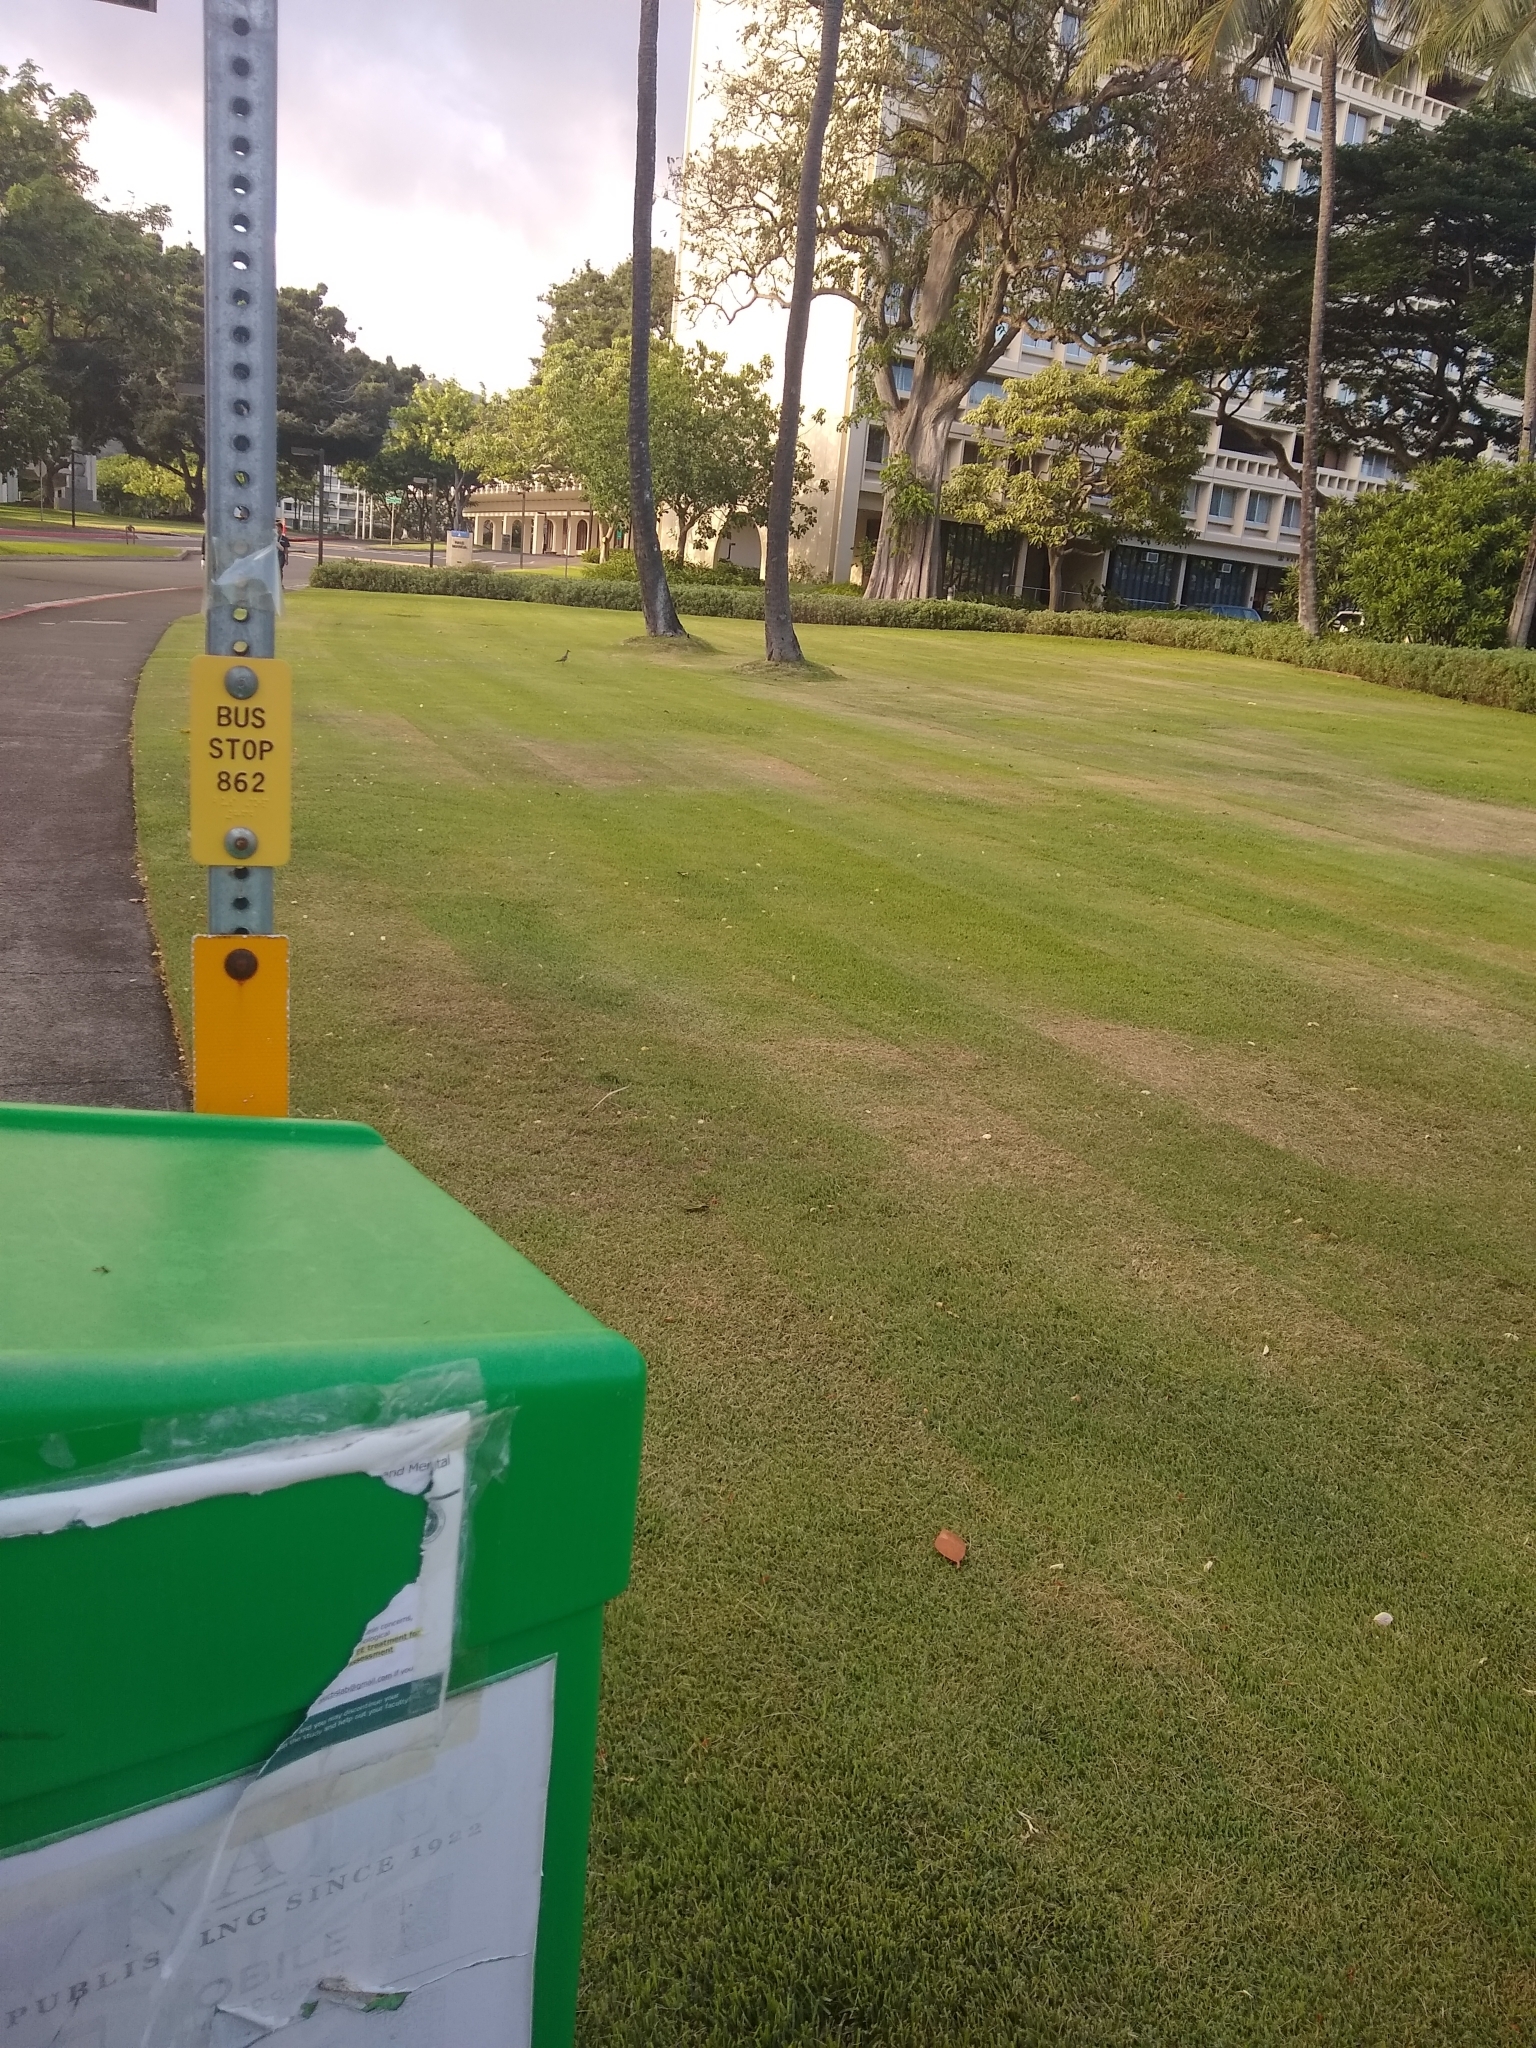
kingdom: Animalia
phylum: Chordata
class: Aves
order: Charadriiformes
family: Charadriidae
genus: Pluvialis
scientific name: Pluvialis fulva
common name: Pacific golden plover
